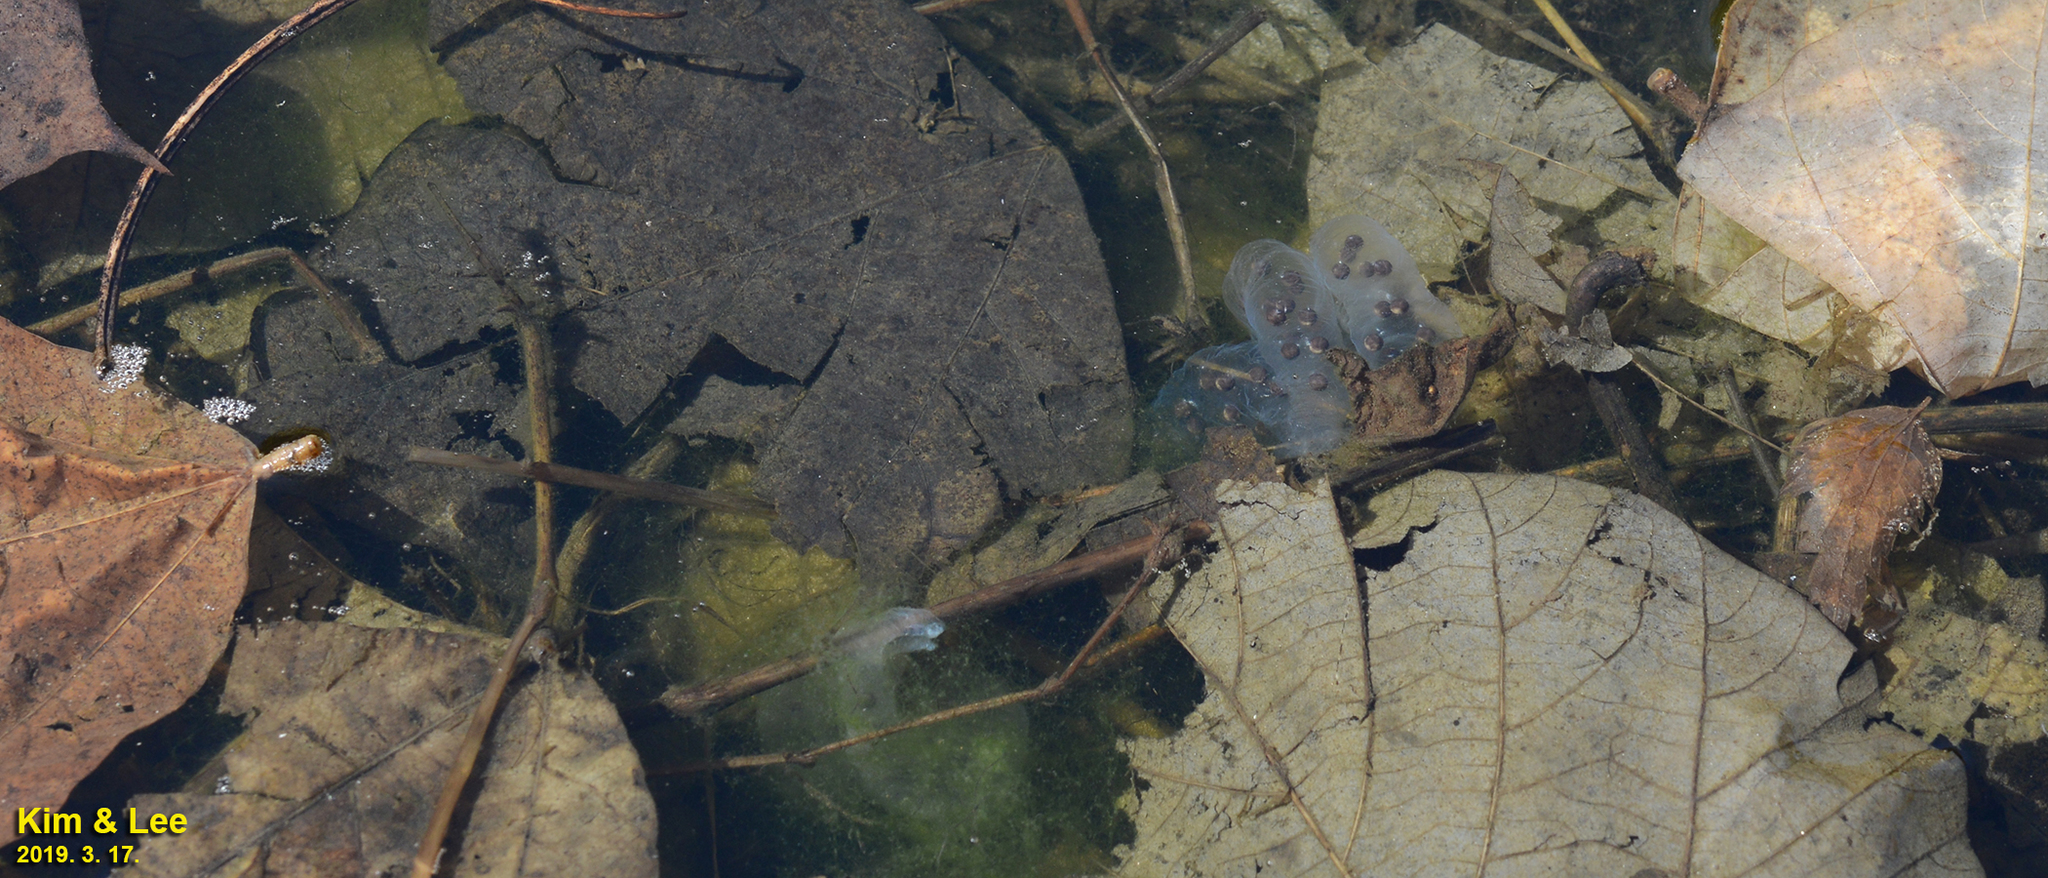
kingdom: Animalia
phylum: Chordata
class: Amphibia
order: Caudata
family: Hynobiidae
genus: Hynobius
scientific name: Hynobius leechii
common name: Gensan salamander
